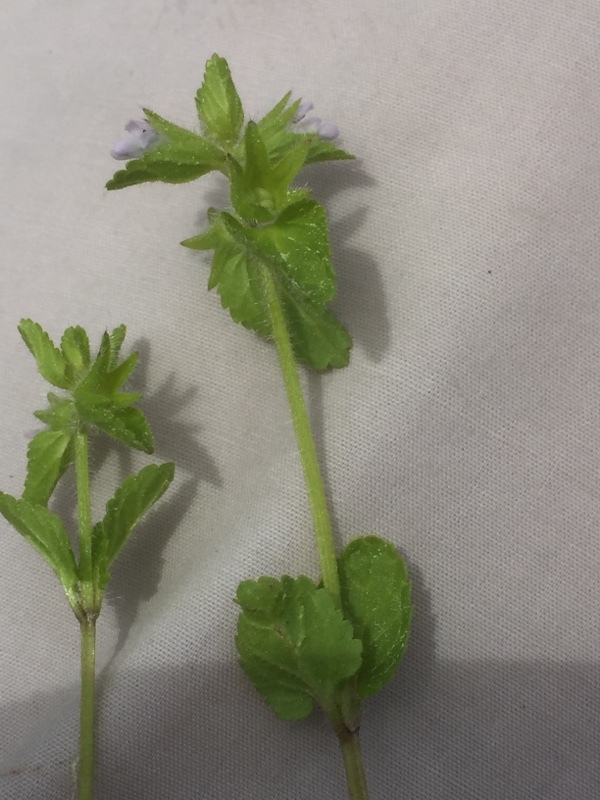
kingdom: Plantae
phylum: Tracheophyta
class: Magnoliopsida
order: Lamiales
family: Lamiaceae
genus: Stachys
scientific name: Stachys arvensis
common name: Field woundwort
